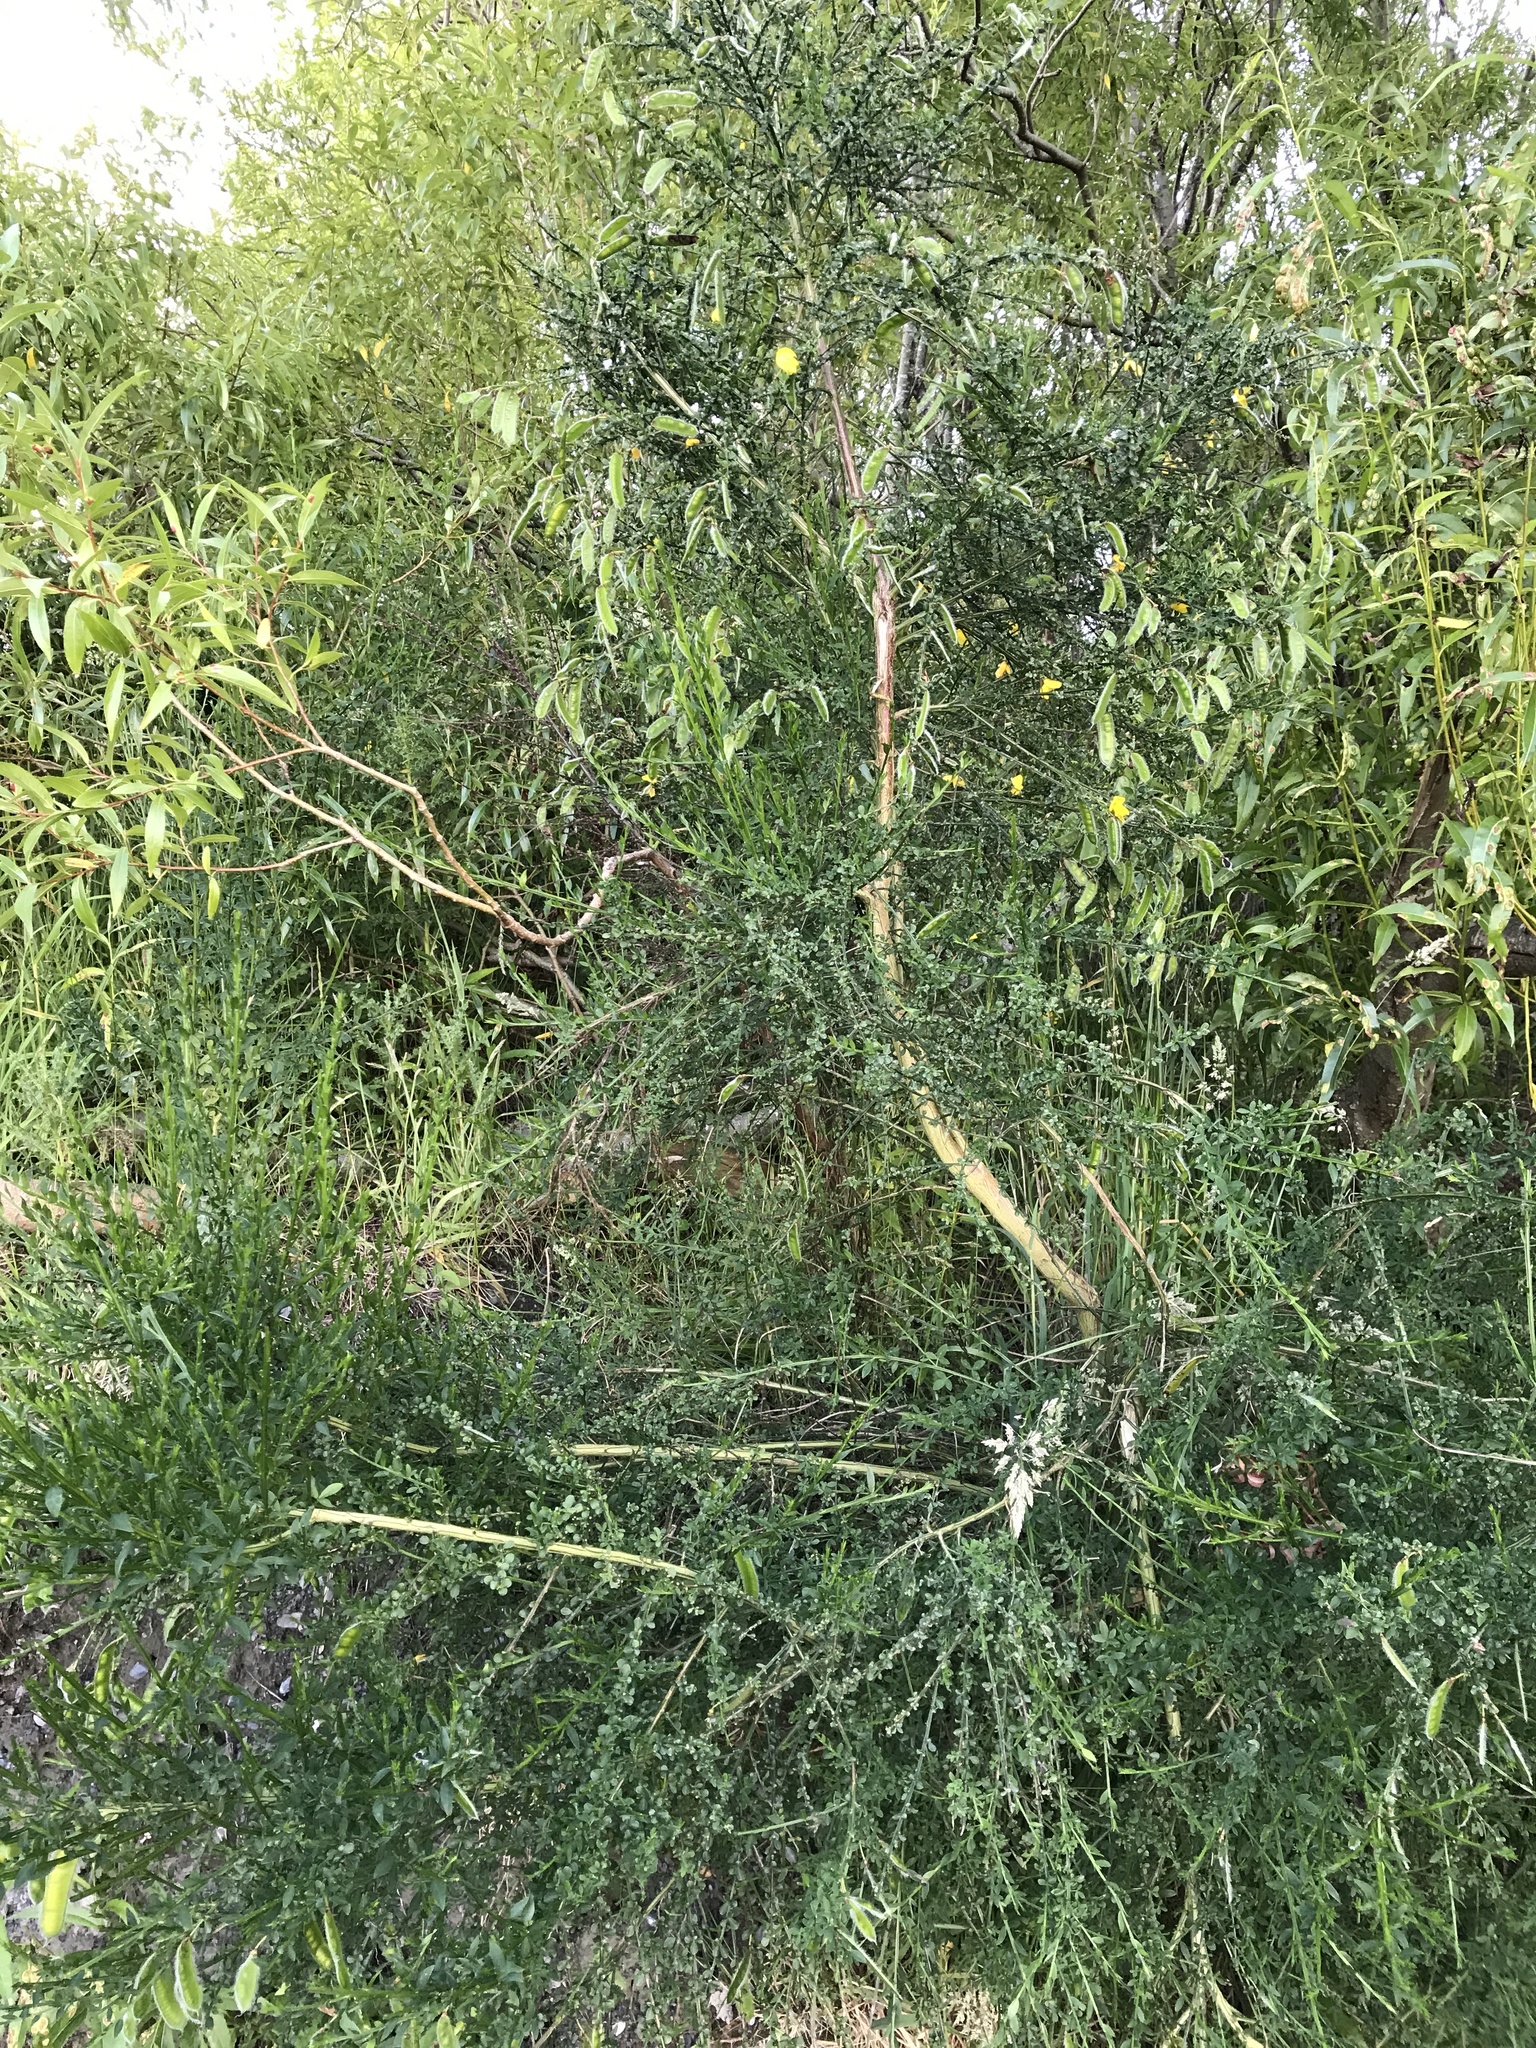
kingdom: Plantae
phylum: Tracheophyta
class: Magnoliopsida
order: Fabales
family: Fabaceae
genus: Cytisus
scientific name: Cytisus scoparius
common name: Scotch broom
